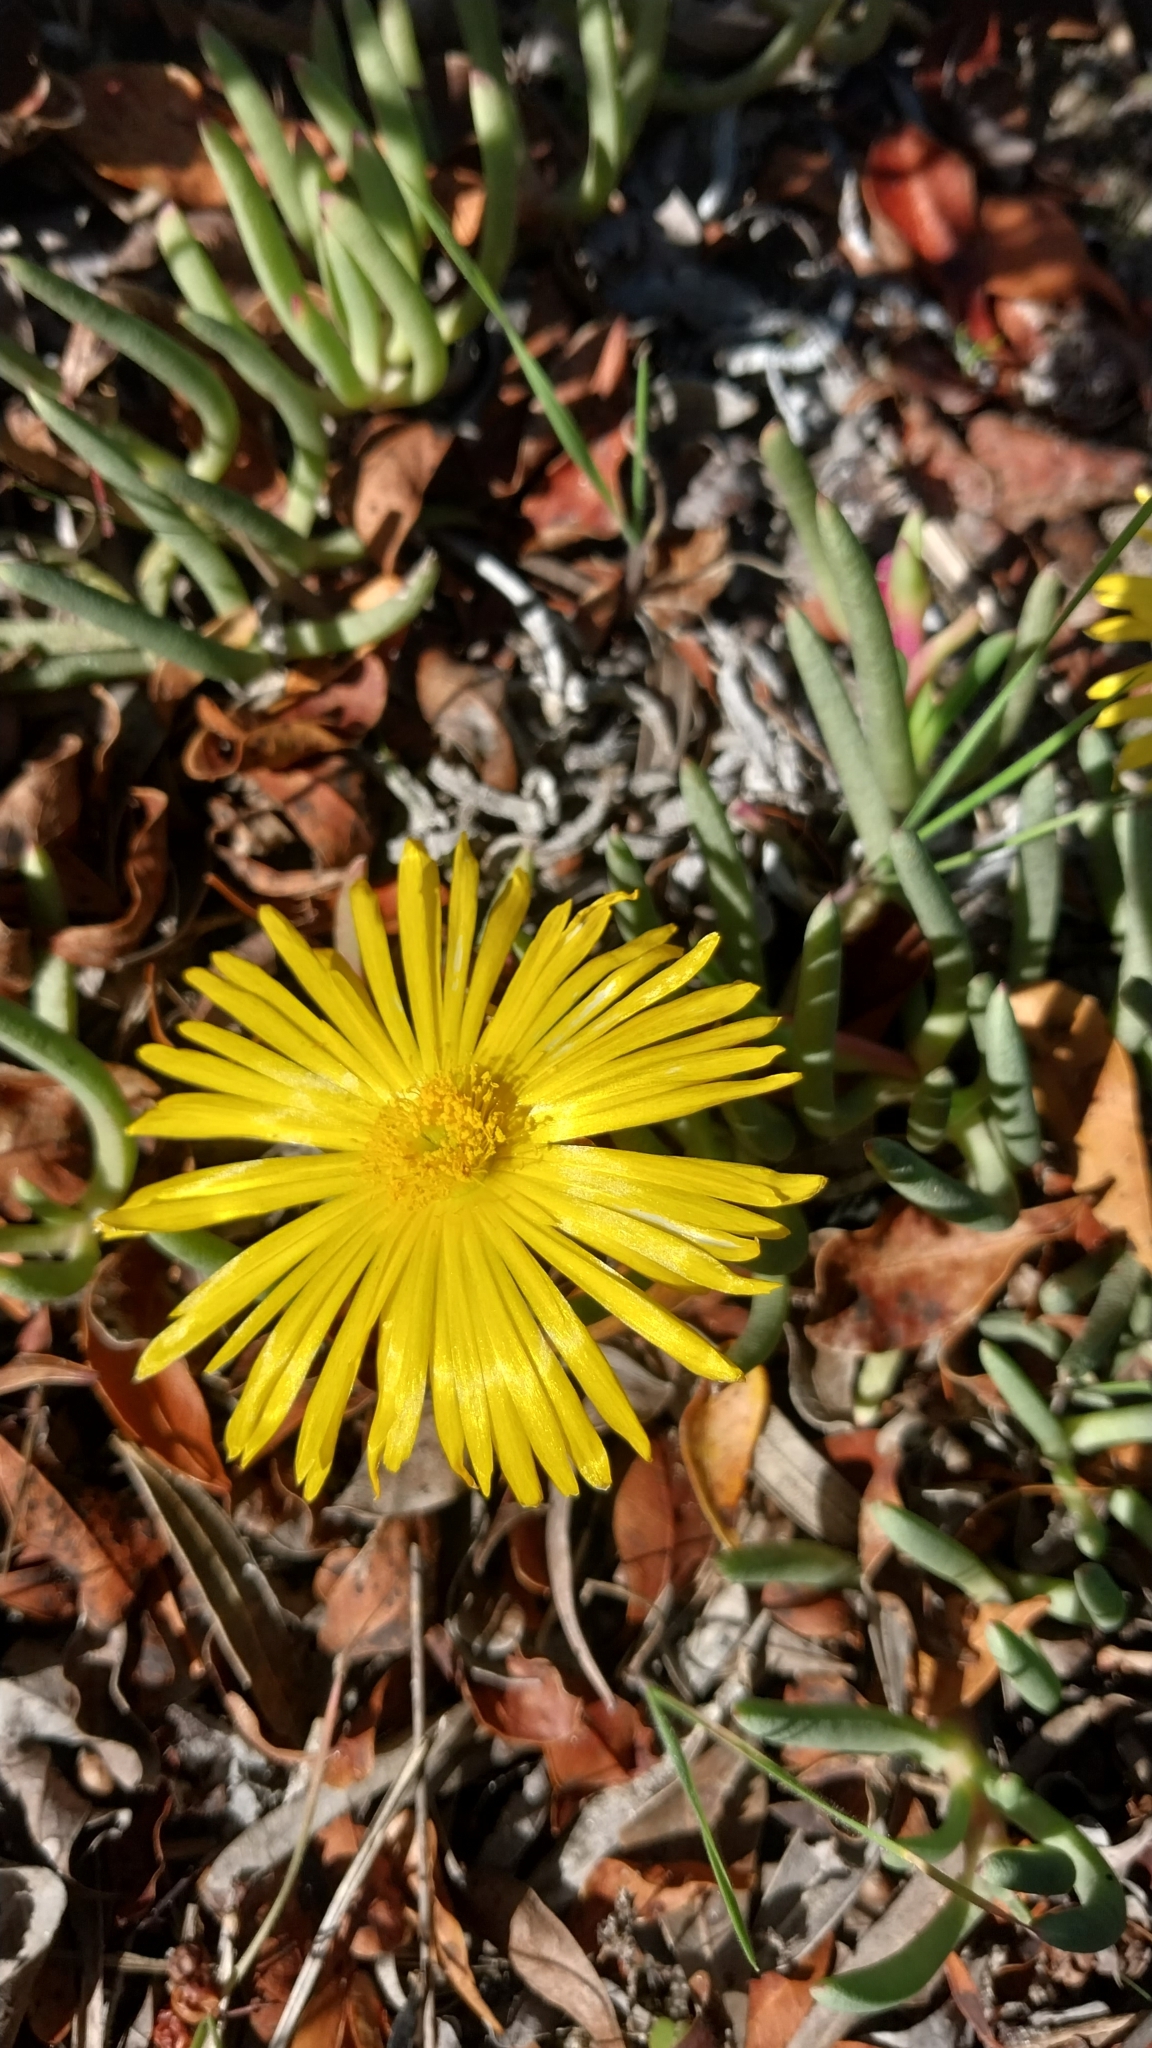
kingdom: Plantae
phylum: Tracheophyta
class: Magnoliopsida
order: Caryophyllales
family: Aizoaceae
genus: Jordaaniella
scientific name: Jordaaniella dubia
